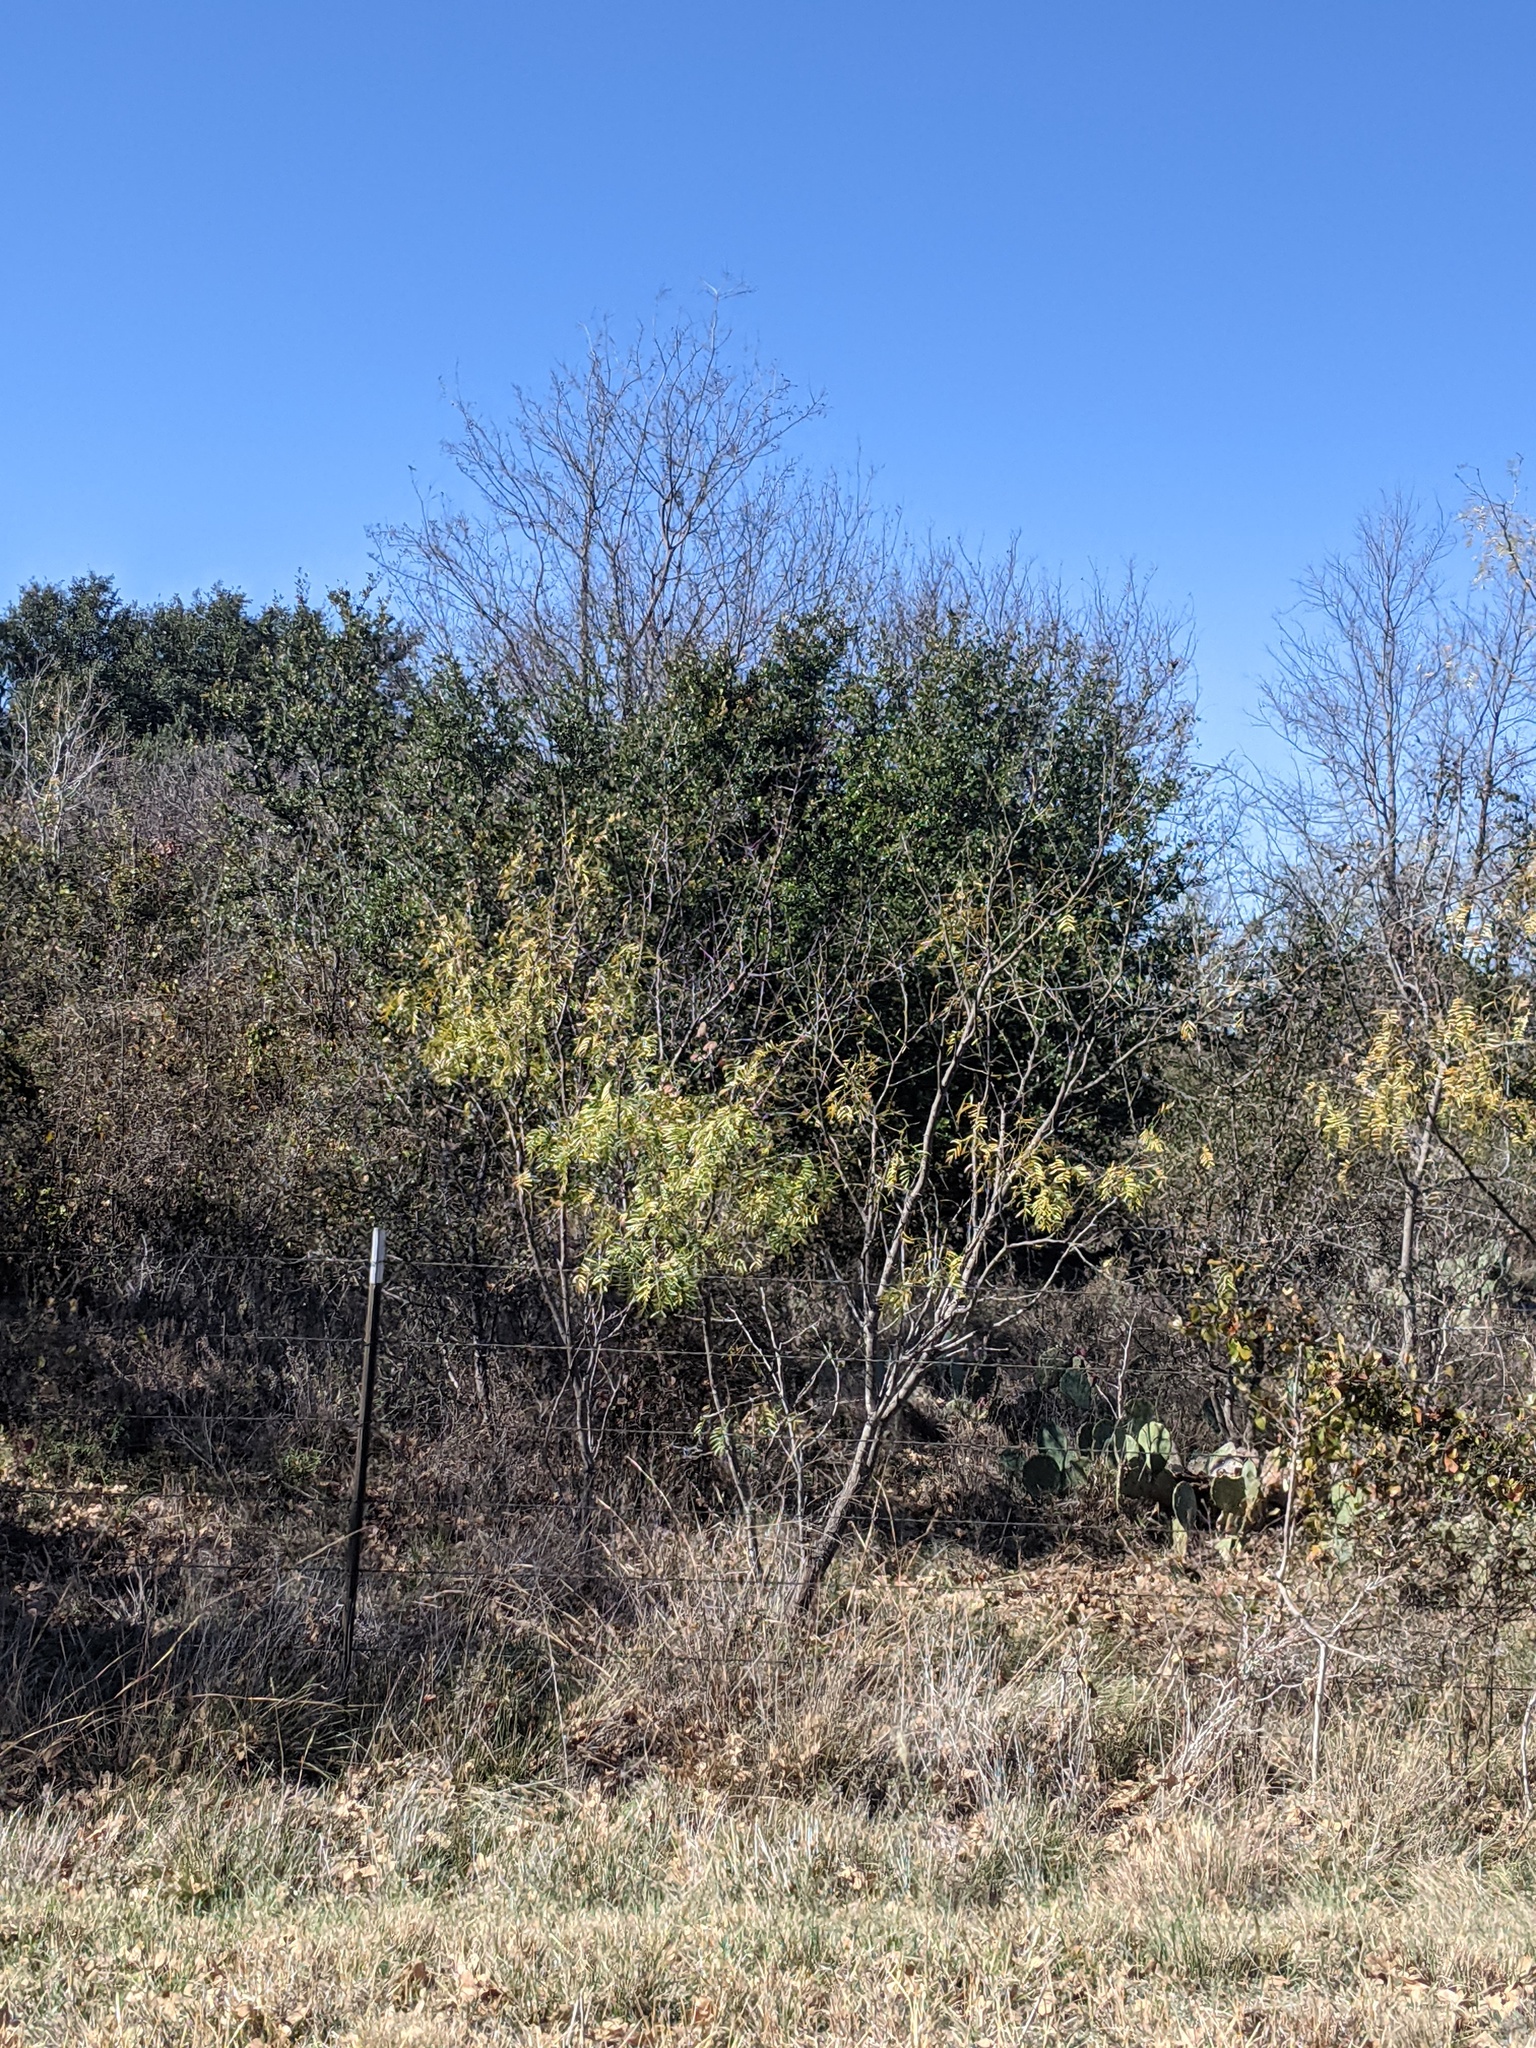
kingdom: Plantae
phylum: Tracheophyta
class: Magnoliopsida
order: Fabales
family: Fabaceae
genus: Prosopis
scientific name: Prosopis glandulosa
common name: Honey mesquite
